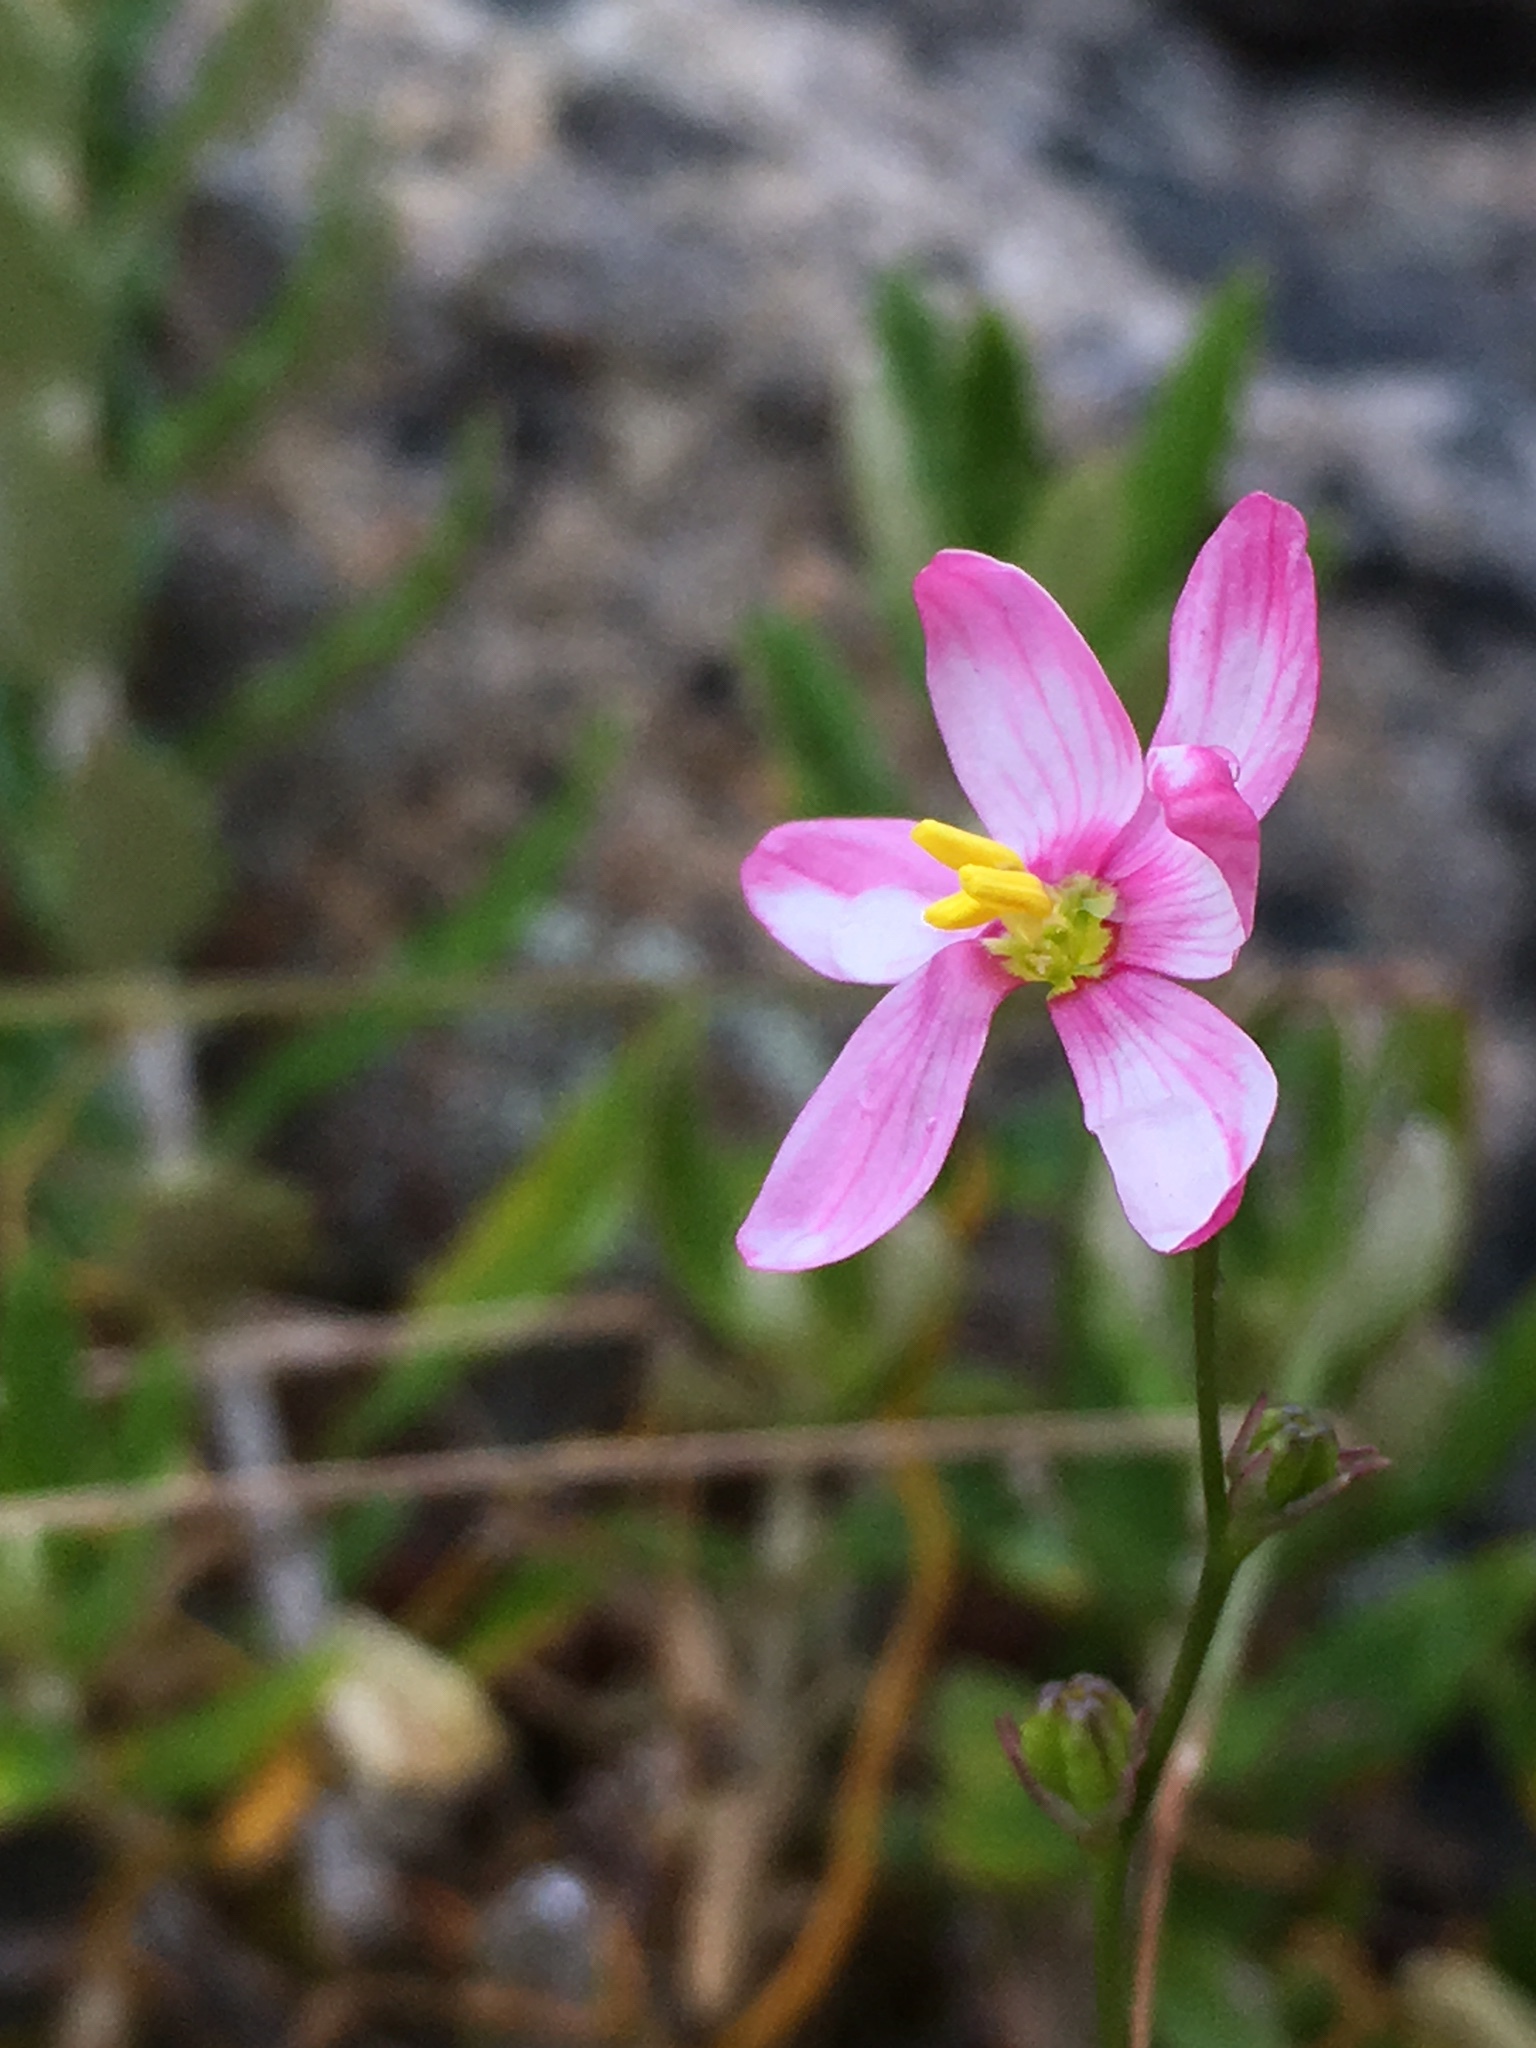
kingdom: Plantae
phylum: Tracheophyta
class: Liliopsida
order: Asparagales
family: Iridaceae
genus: Ixia
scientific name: Ixia scillaris
